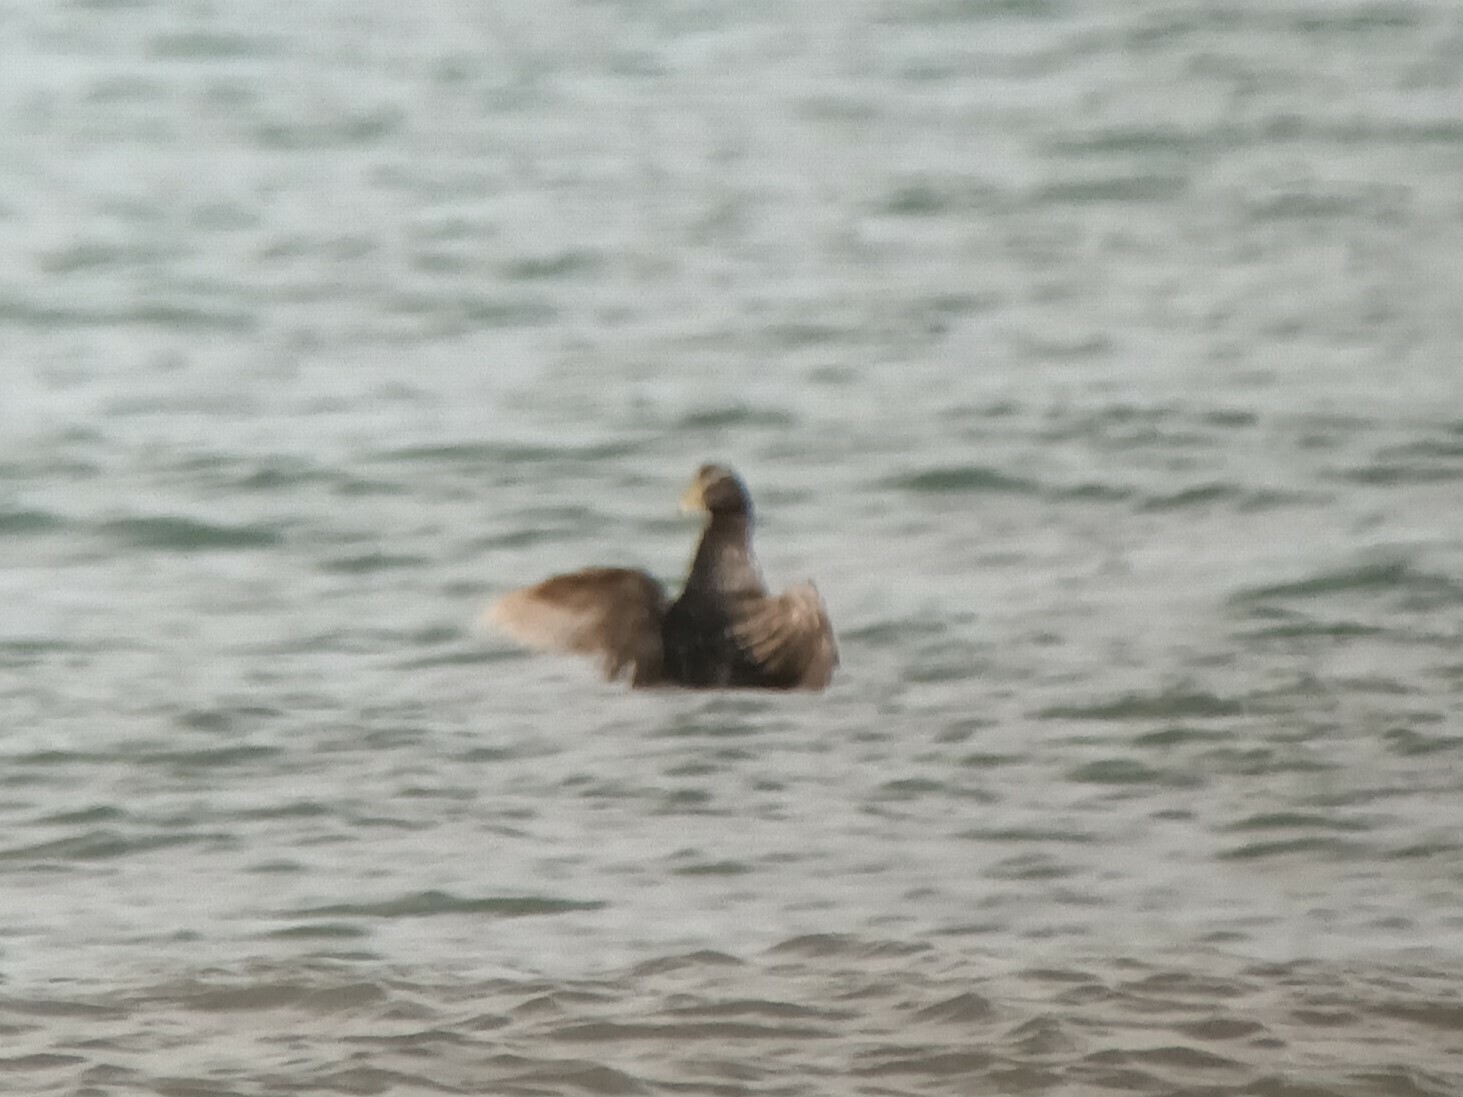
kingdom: Animalia
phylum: Chordata
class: Aves
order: Anseriformes
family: Anatidae
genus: Somateria
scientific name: Somateria mollissima
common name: Common eider
